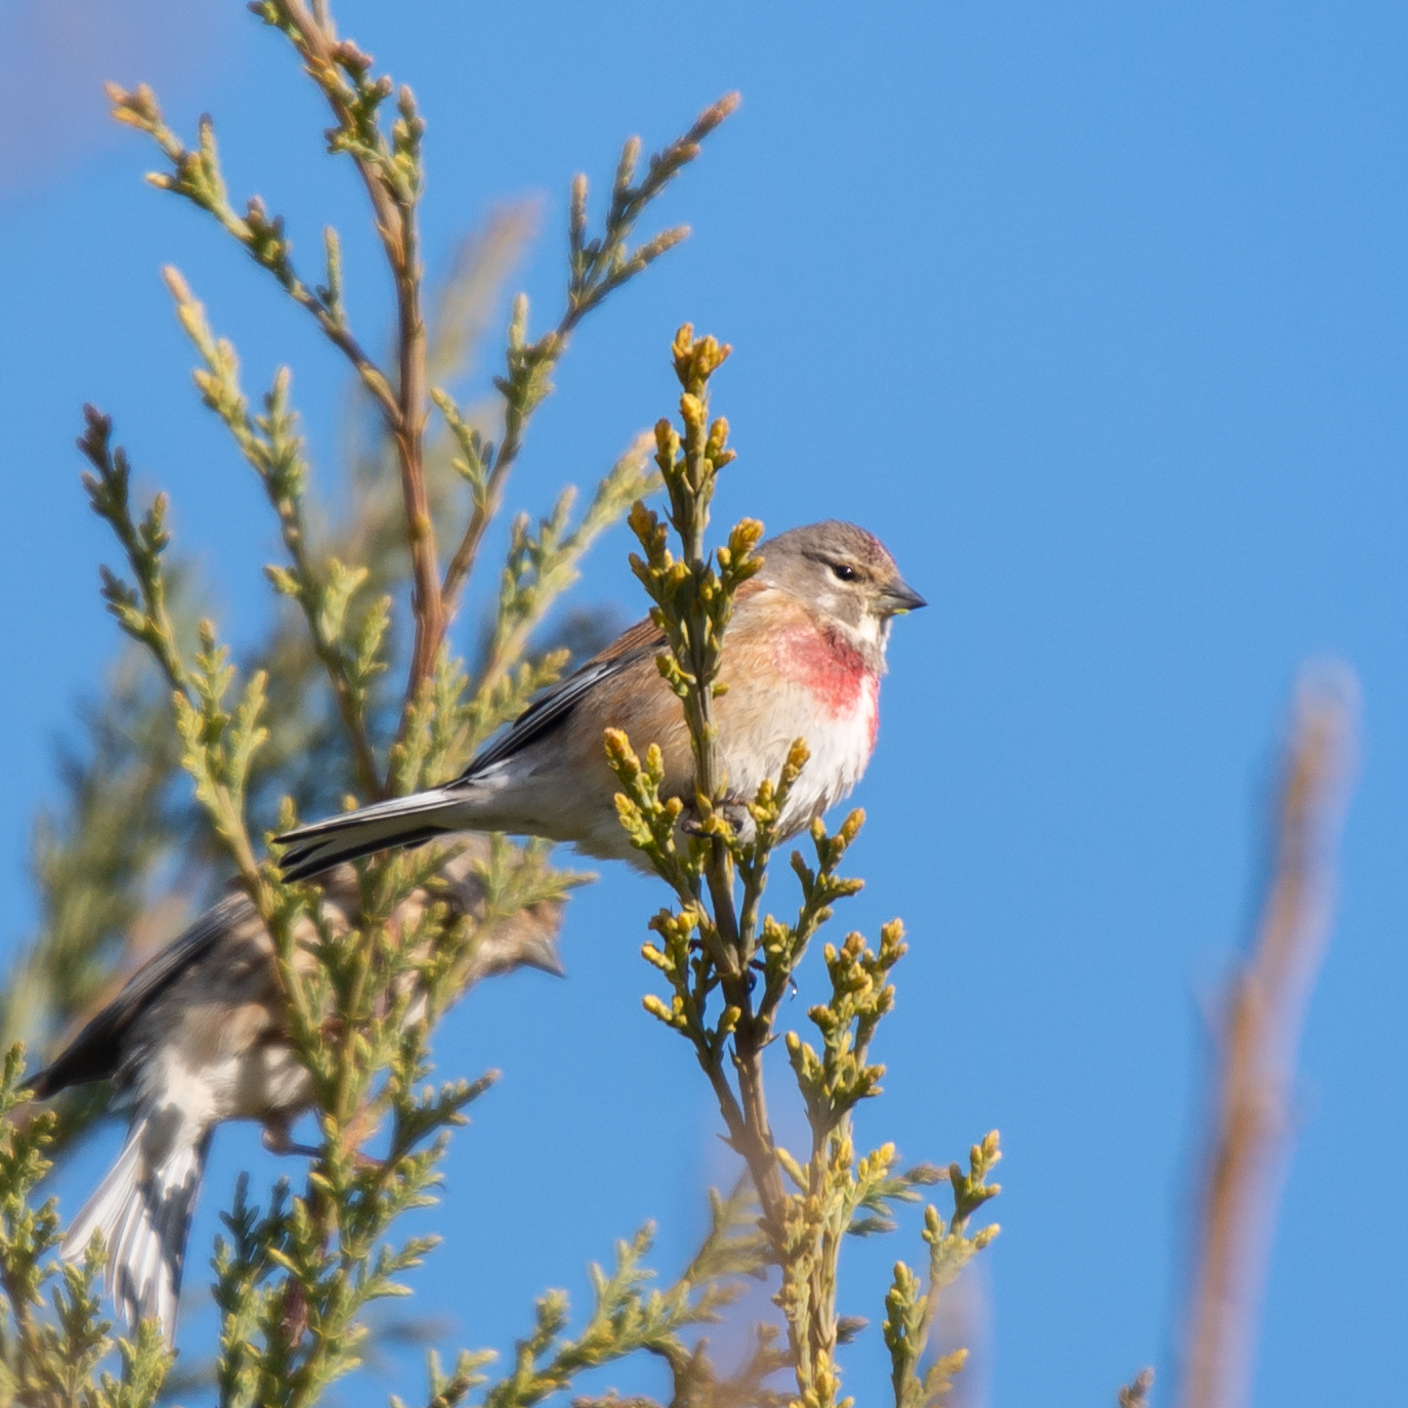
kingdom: Animalia
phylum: Chordata
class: Aves
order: Passeriformes
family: Fringillidae
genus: Linaria
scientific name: Linaria cannabina
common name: Common linnet
